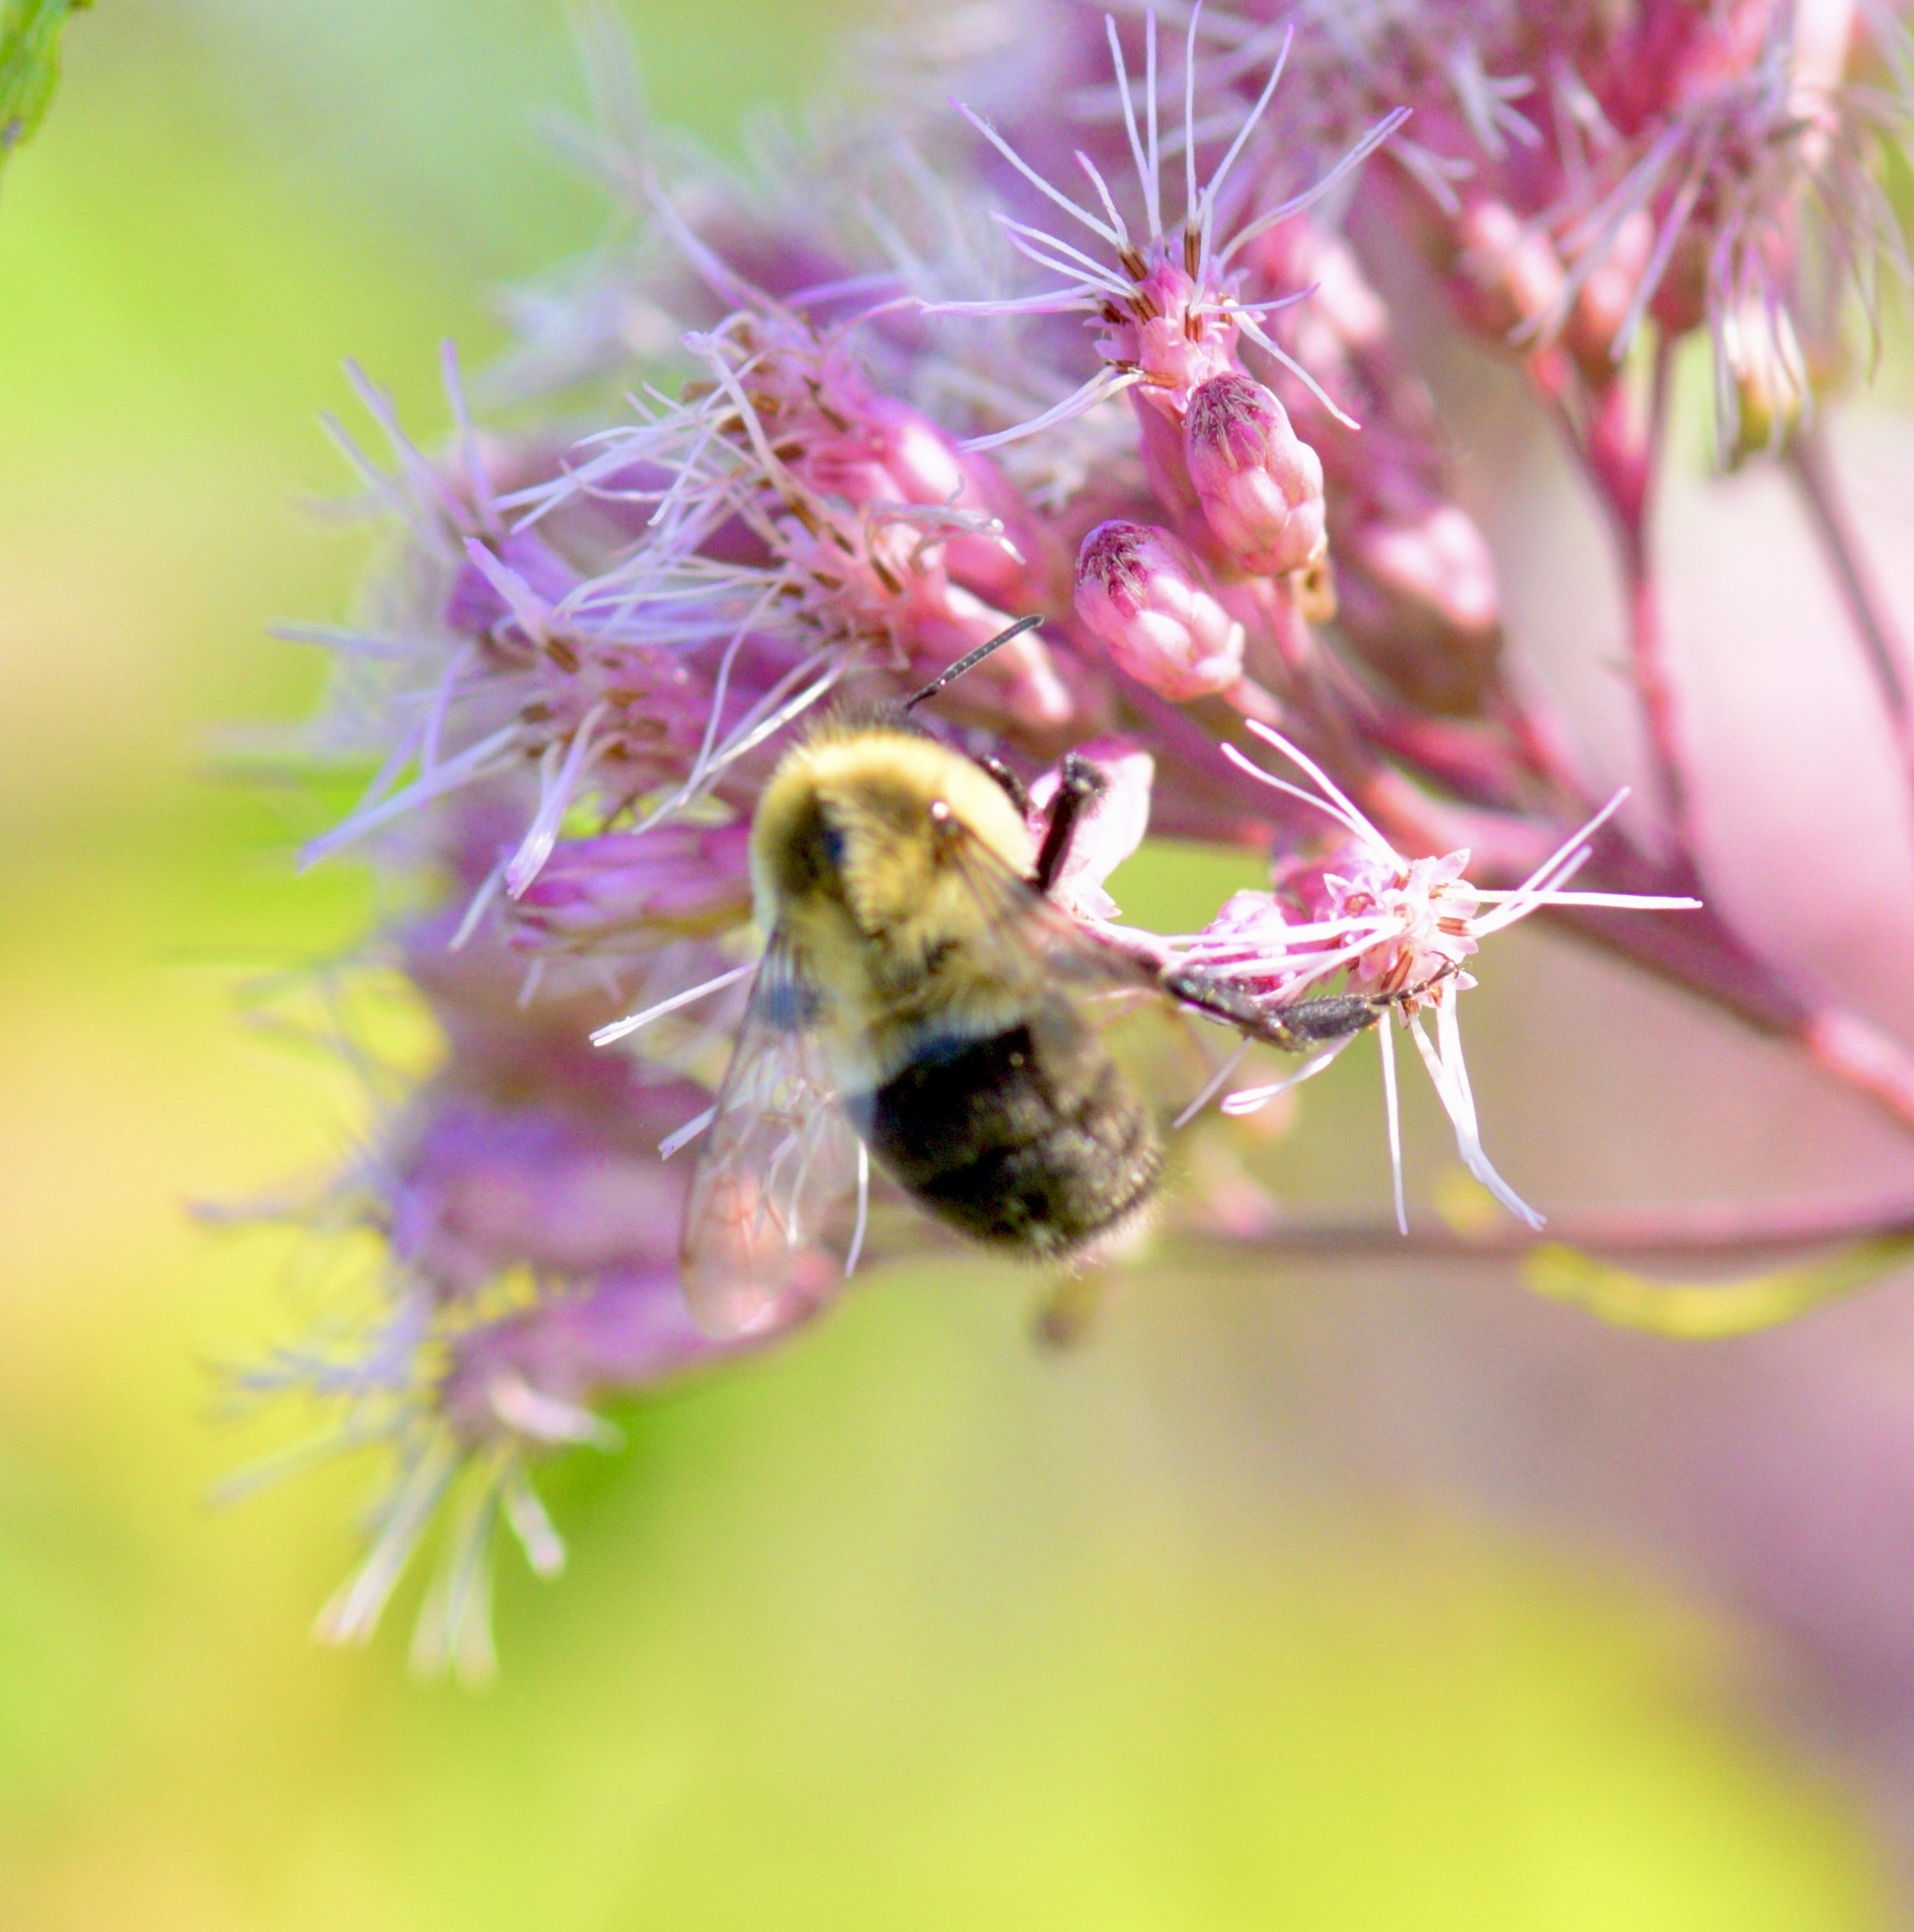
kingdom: Animalia
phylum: Arthropoda
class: Insecta
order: Hymenoptera
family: Apidae
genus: Bombus
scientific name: Bombus impatiens
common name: Common eastern bumble bee
